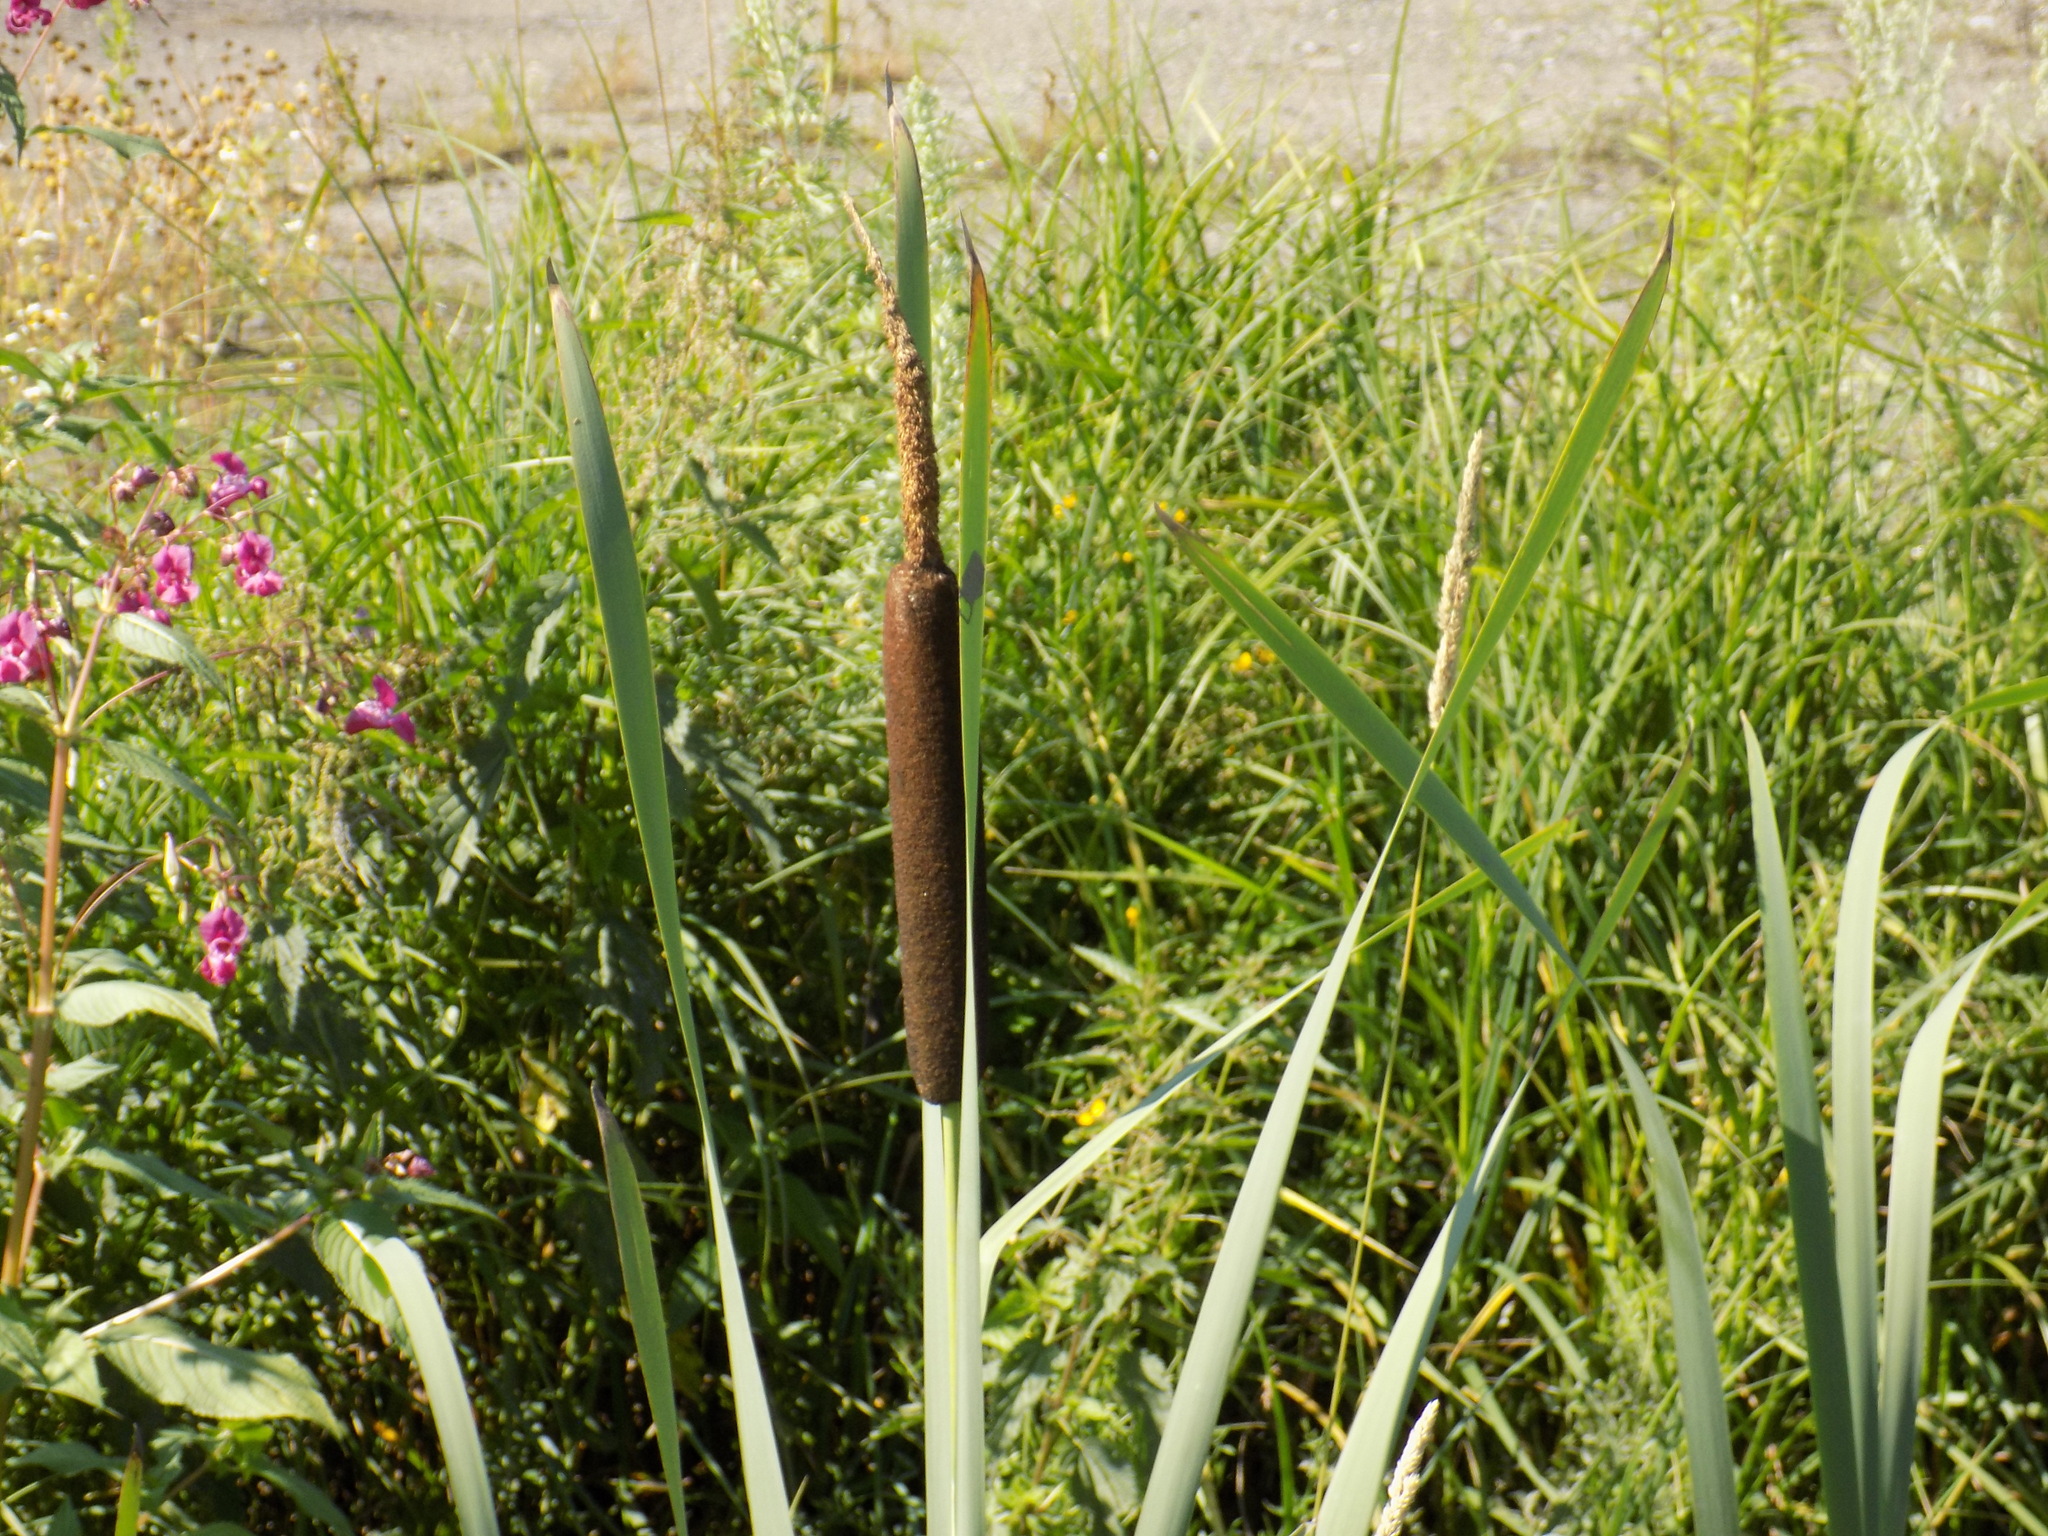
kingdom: Plantae
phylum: Tracheophyta
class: Liliopsida
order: Poales
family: Typhaceae
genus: Typha
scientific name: Typha latifolia
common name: Broadleaf cattail
